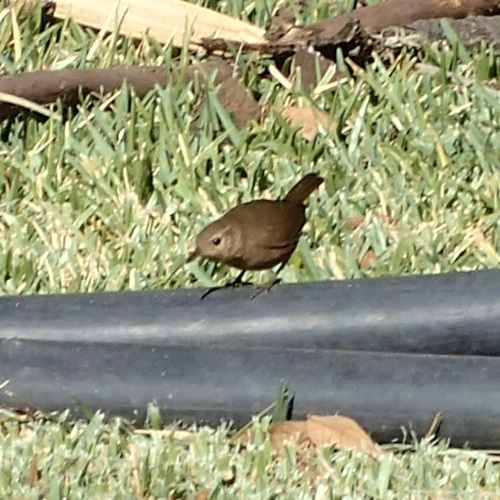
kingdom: Animalia
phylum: Chordata
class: Aves
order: Passeriformes
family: Troglodytidae
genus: Troglodytes
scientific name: Troglodytes aedon
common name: House wren
